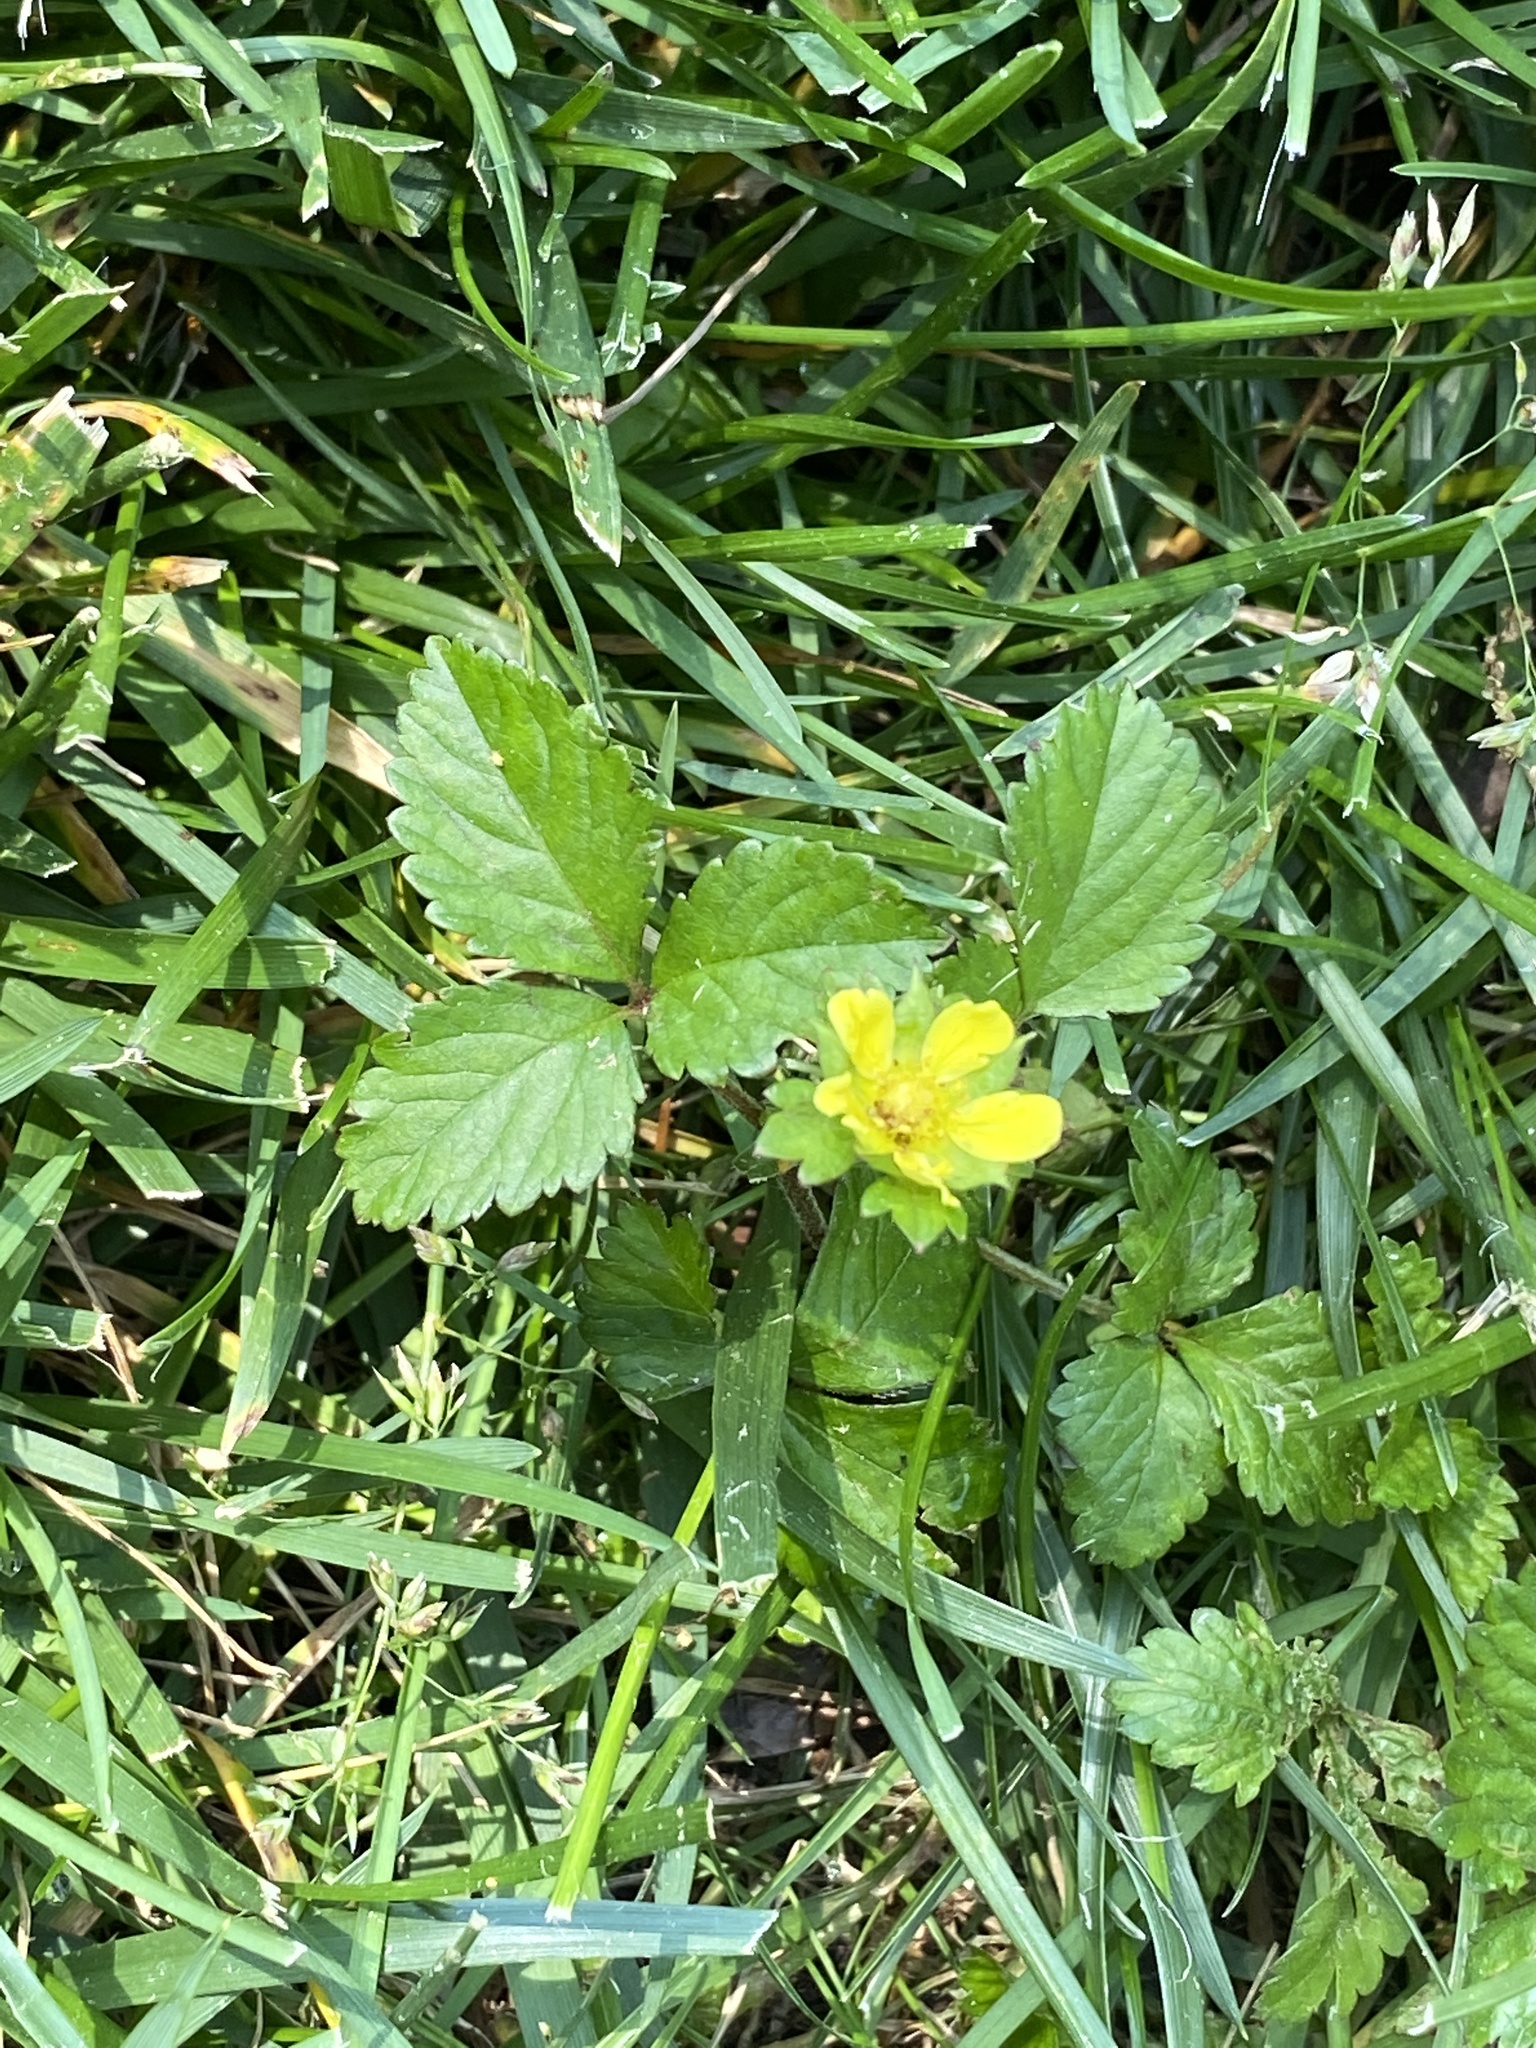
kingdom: Plantae
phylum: Tracheophyta
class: Magnoliopsida
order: Rosales
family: Rosaceae
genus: Potentilla
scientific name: Potentilla indica
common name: Yellow-flowered strawberry
